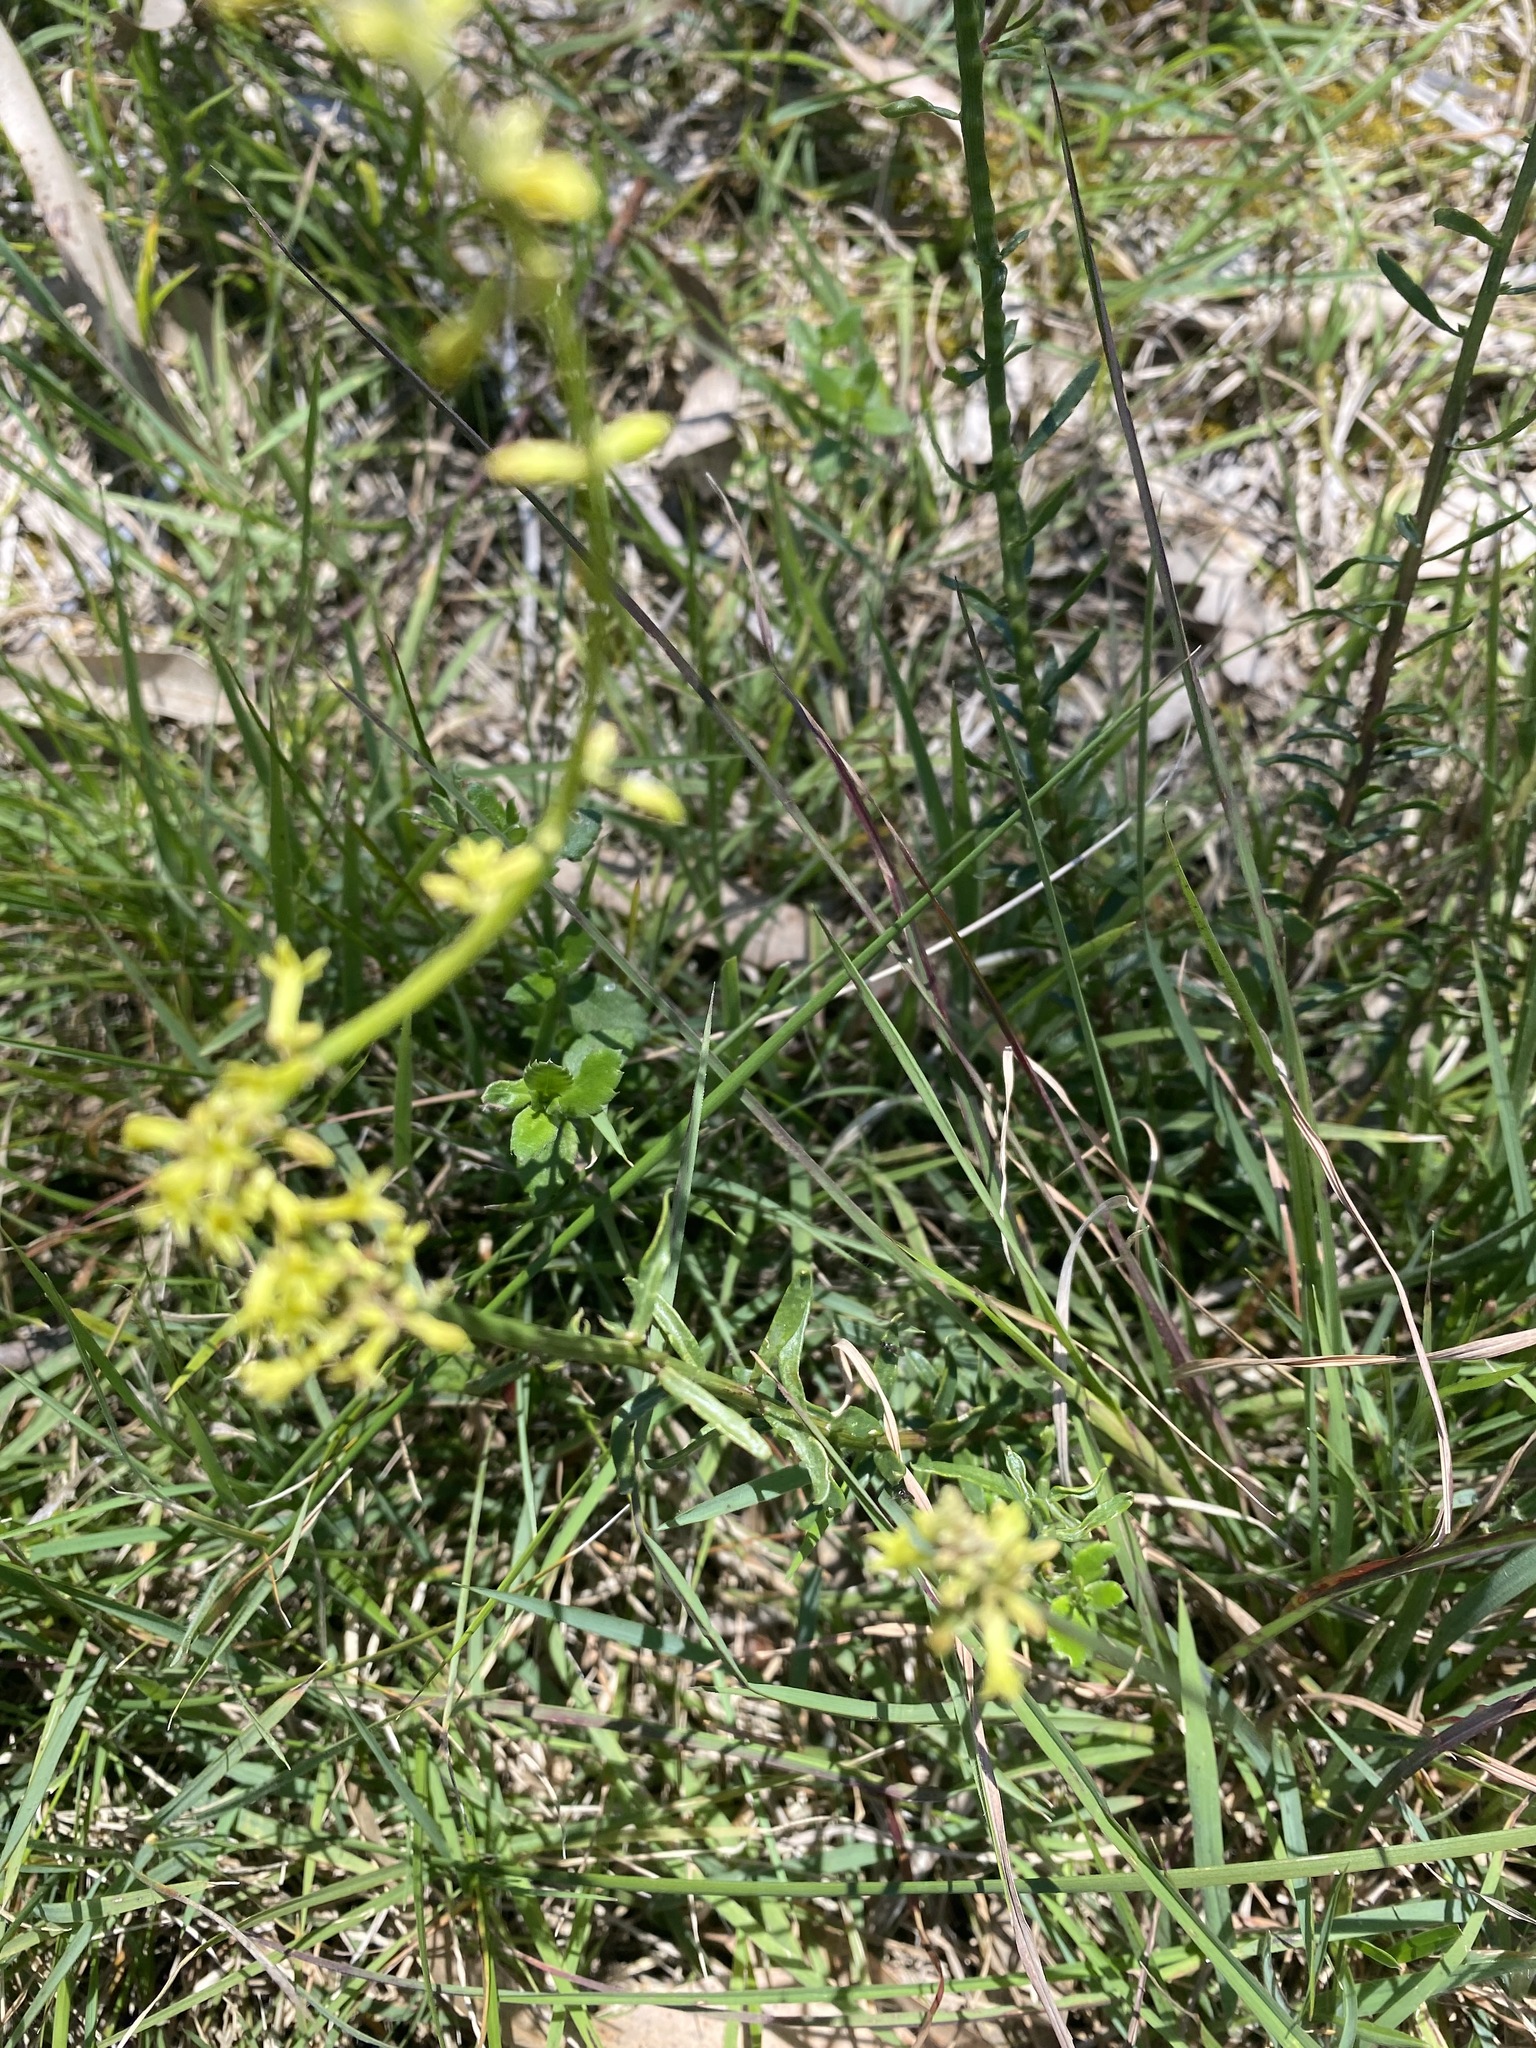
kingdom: Plantae
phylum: Tracheophyta
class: Magnoliopsida
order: Celastrales
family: Celastraceae
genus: Stackhousia
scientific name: Stackhousia viminea
